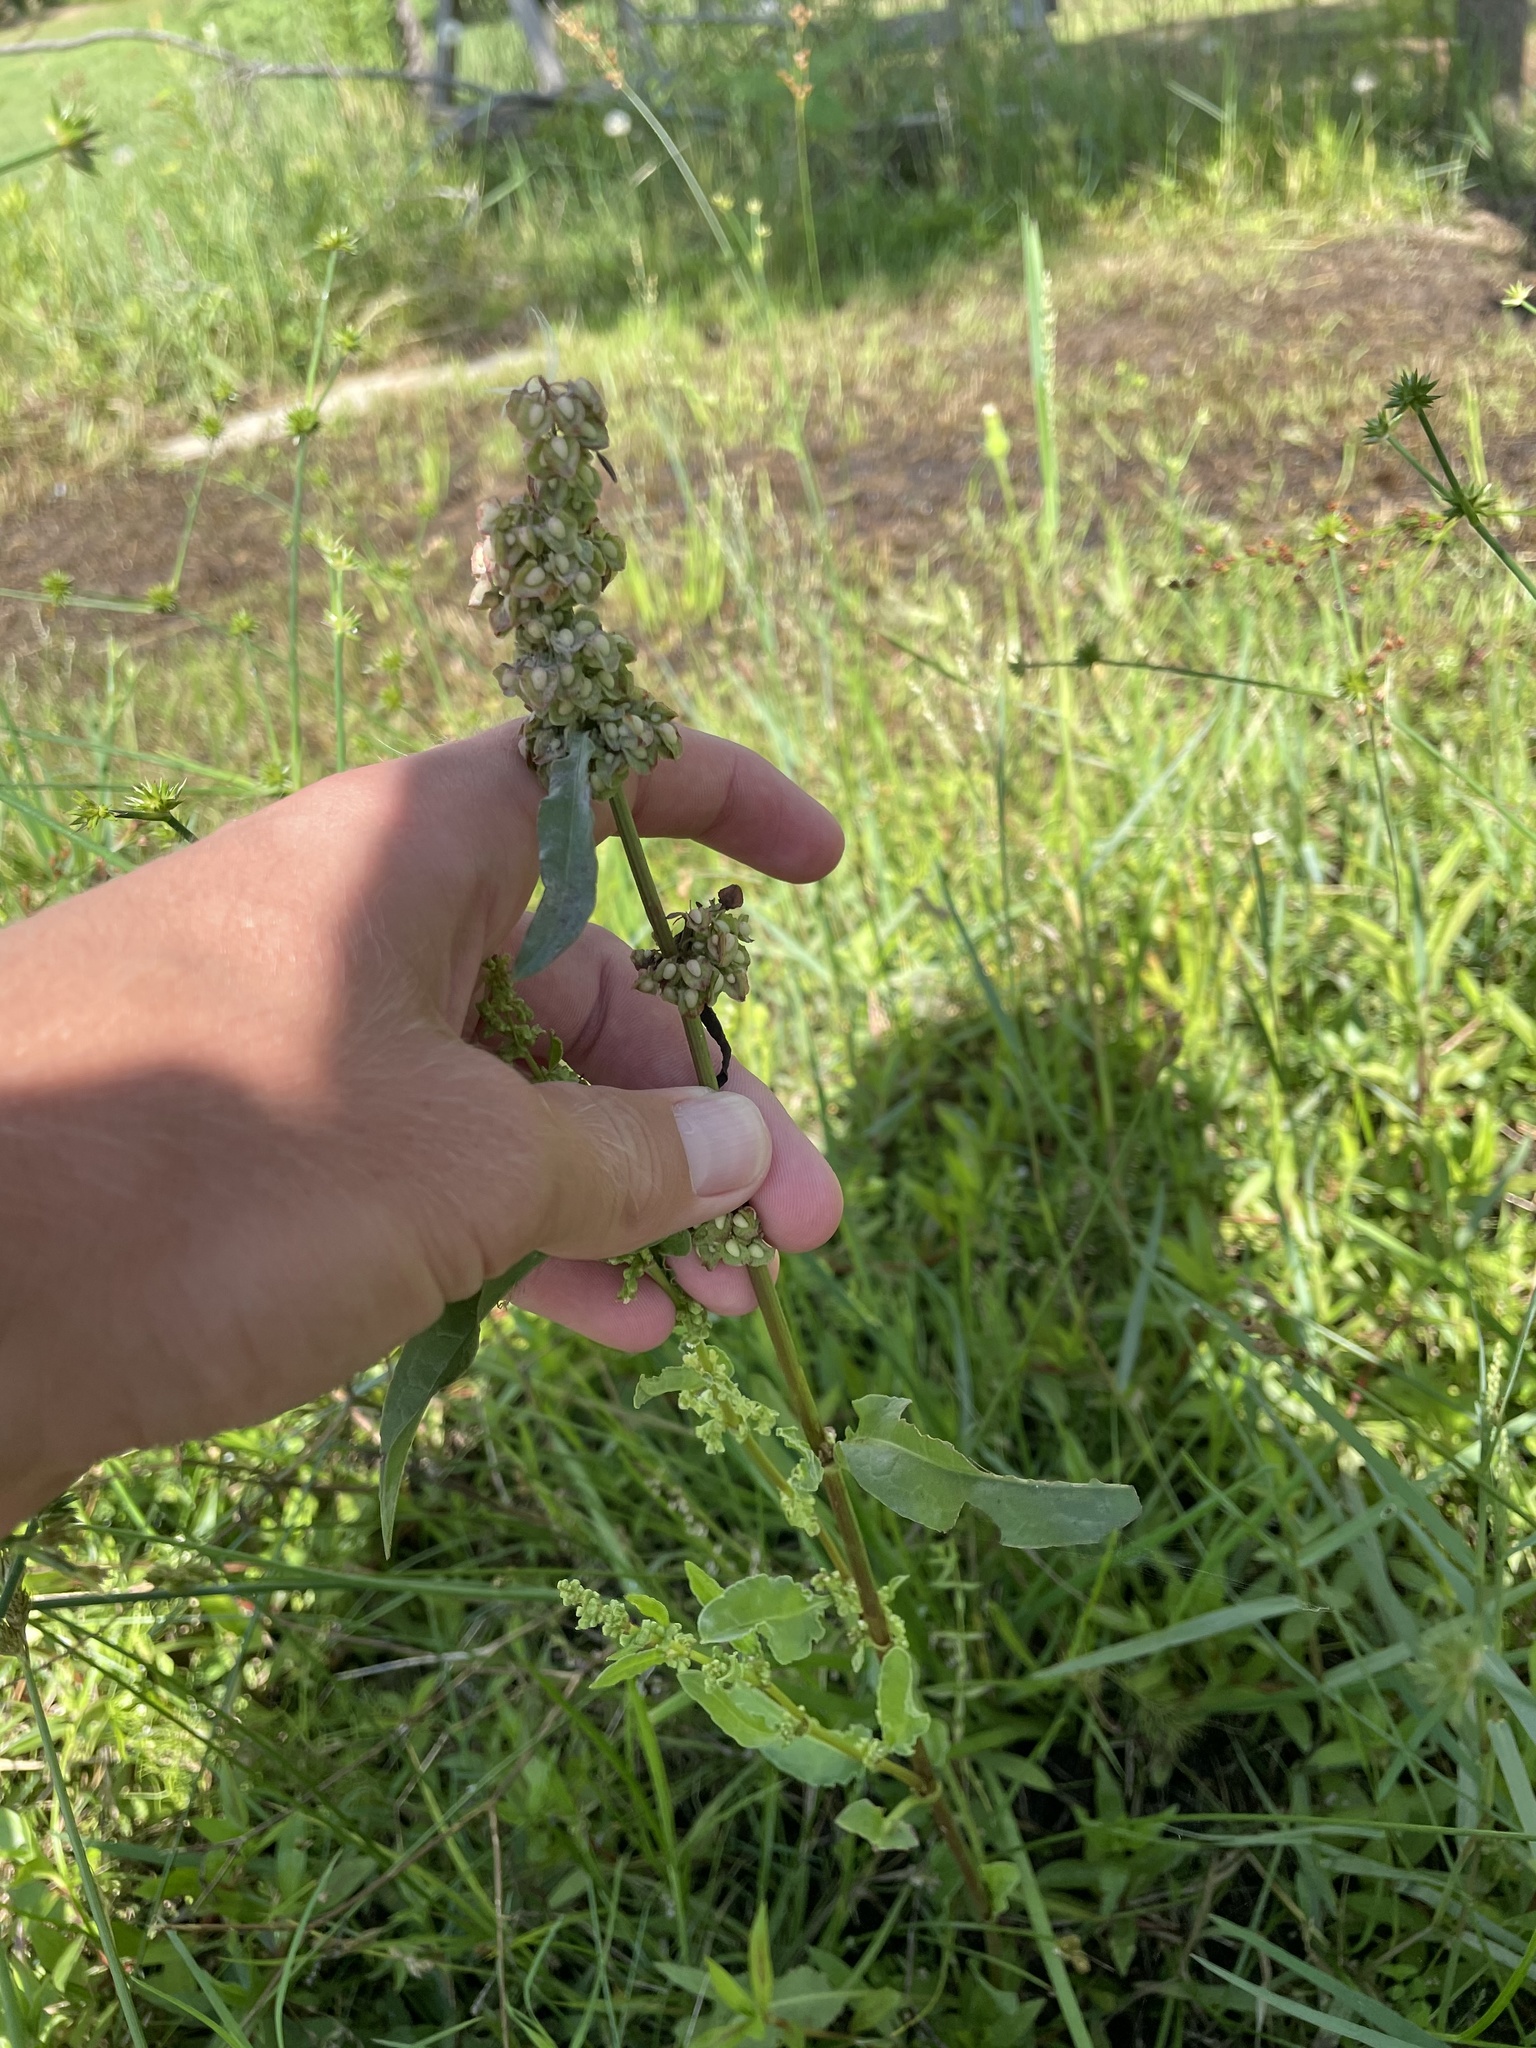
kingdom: Plantae
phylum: Tracheophyta
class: Magnoliopsida
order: Caryophyllales
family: Polygonaceae
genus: Rumex
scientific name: Rumex crispus
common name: Curled dock
